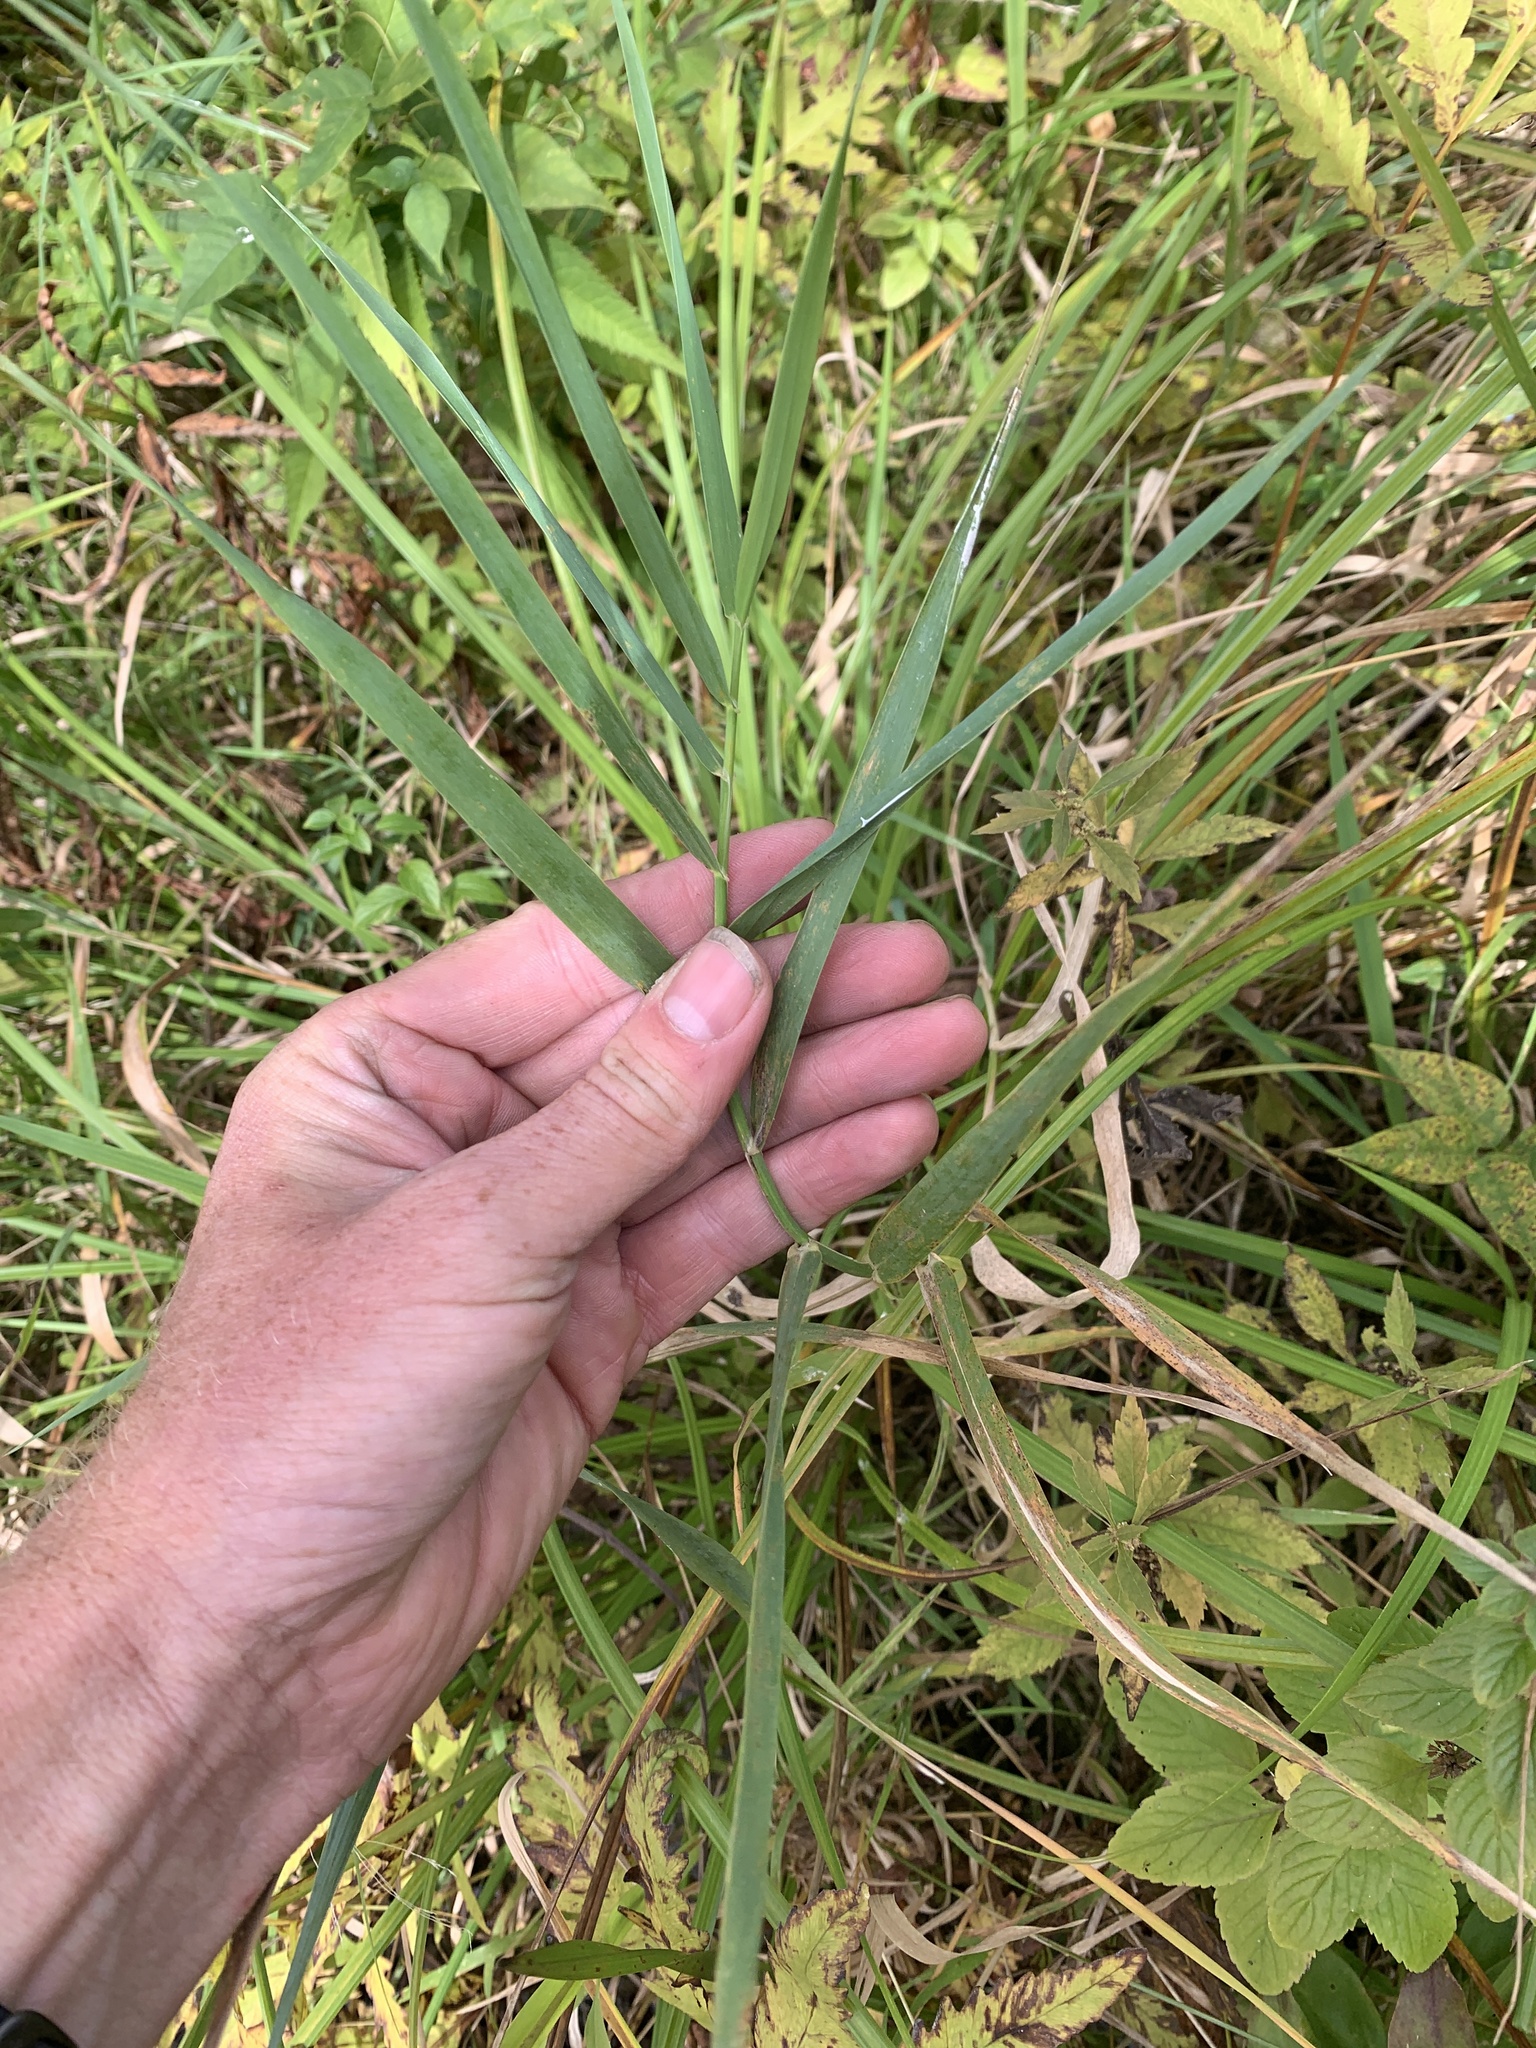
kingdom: Plantae
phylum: Tracheophyta
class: Liliopsida
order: Poales
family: Poaceae
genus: Phalaris
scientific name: Phalaris arundinacea
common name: Reed canary-grass
